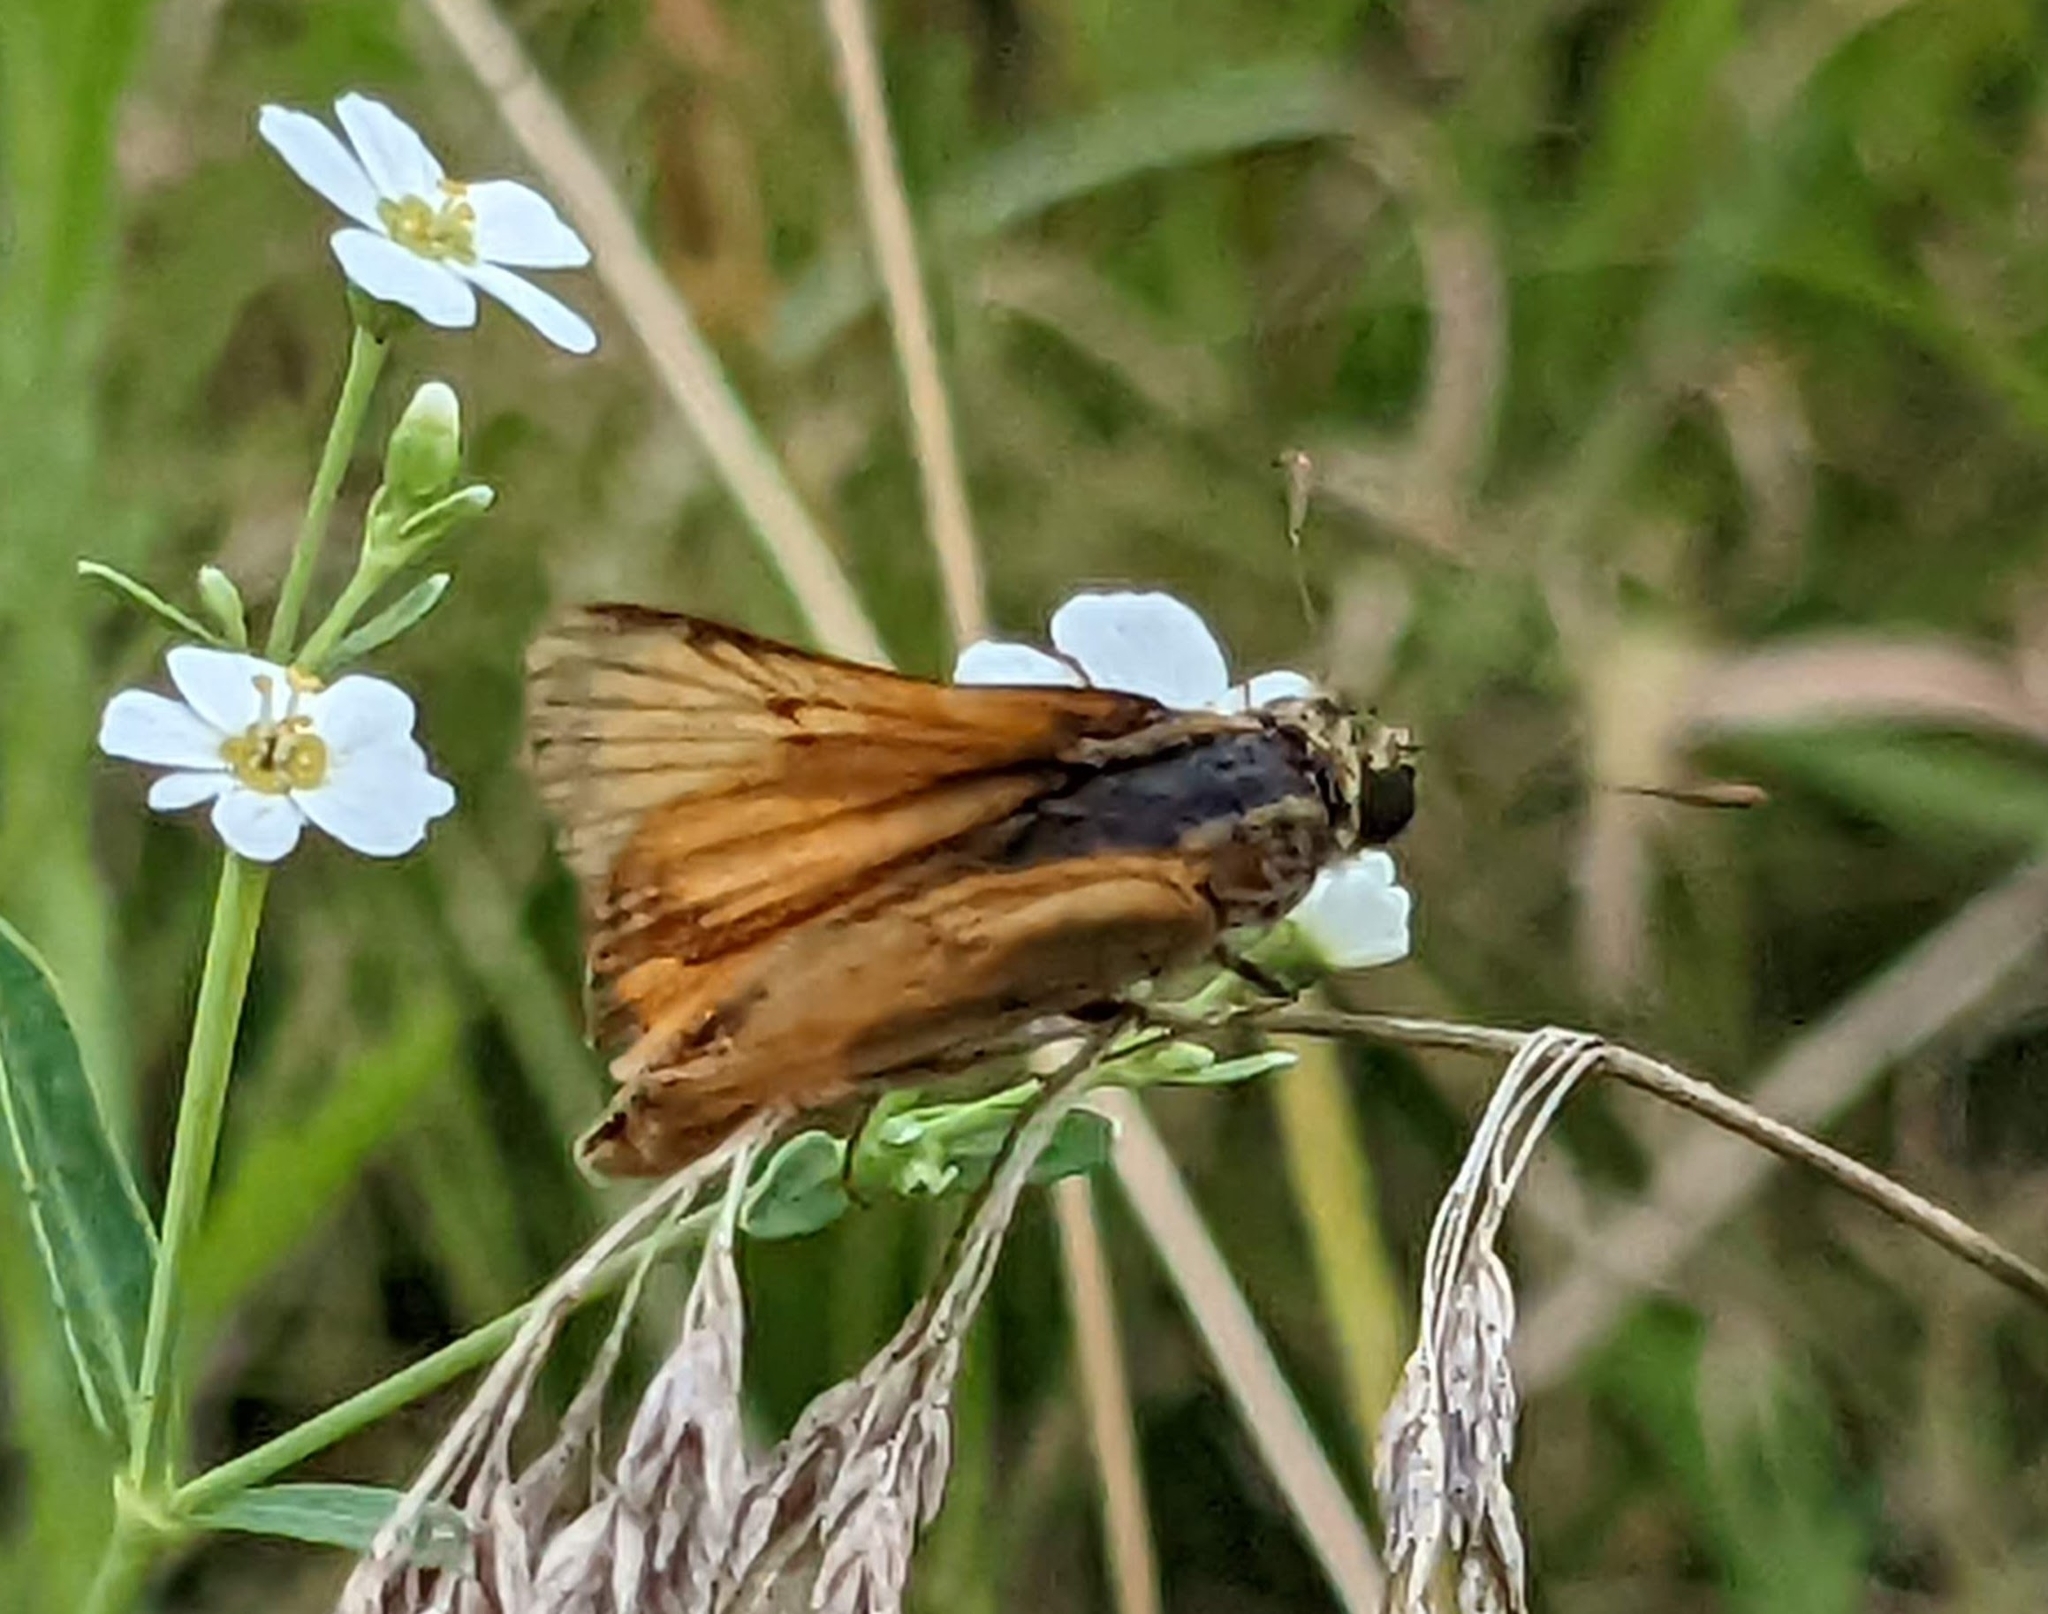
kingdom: Animalia
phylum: Arthropoda
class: Insecta
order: Lepidoptera
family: Hesperiidae
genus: Atrytone
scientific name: Atrytone delaware
